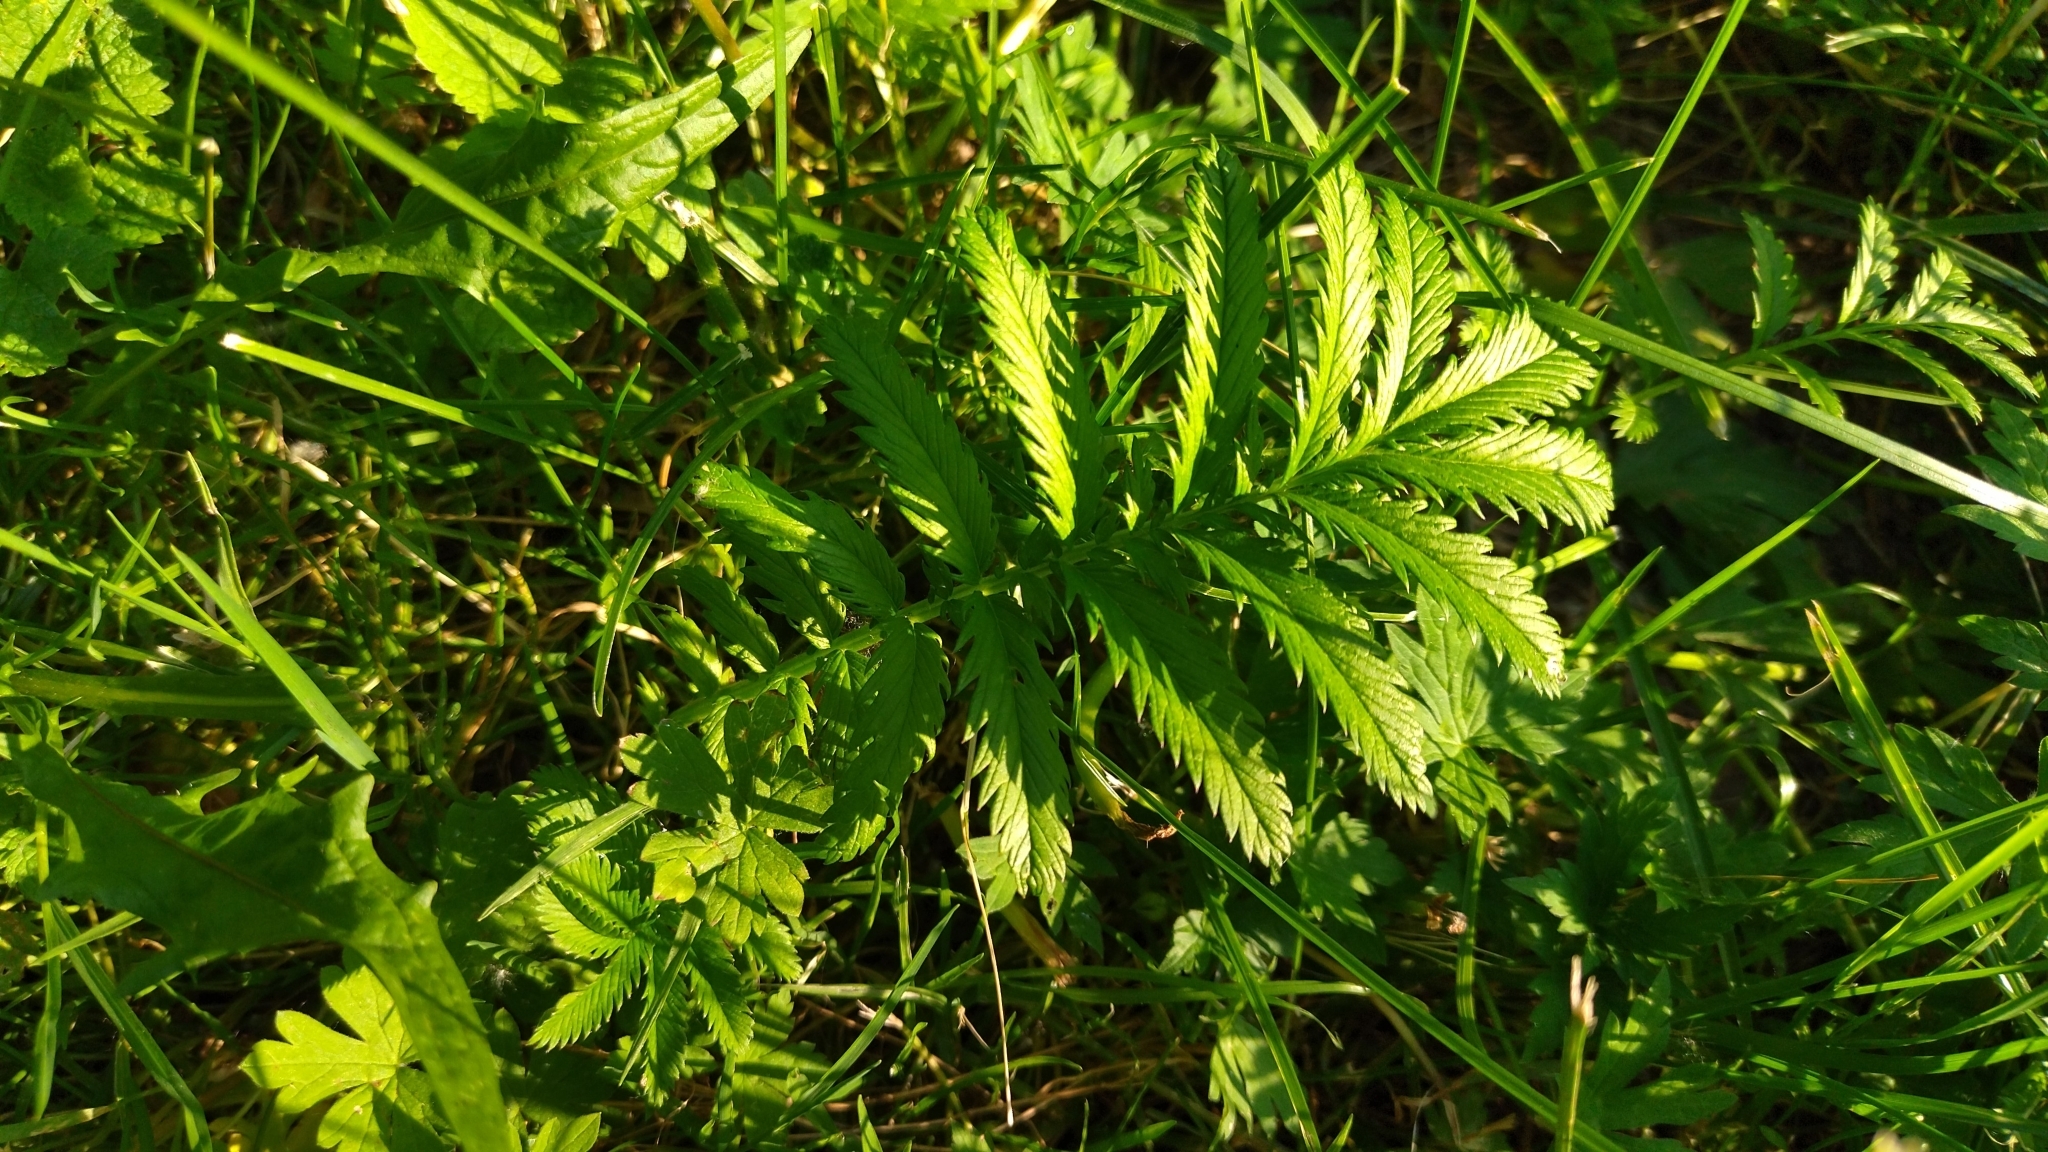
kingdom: Plantae
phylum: Tracheophyta
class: Magnoliopsida
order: Rosales
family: Rosaceae
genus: Argentina
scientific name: Argentina anserina
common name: Common silverweed
